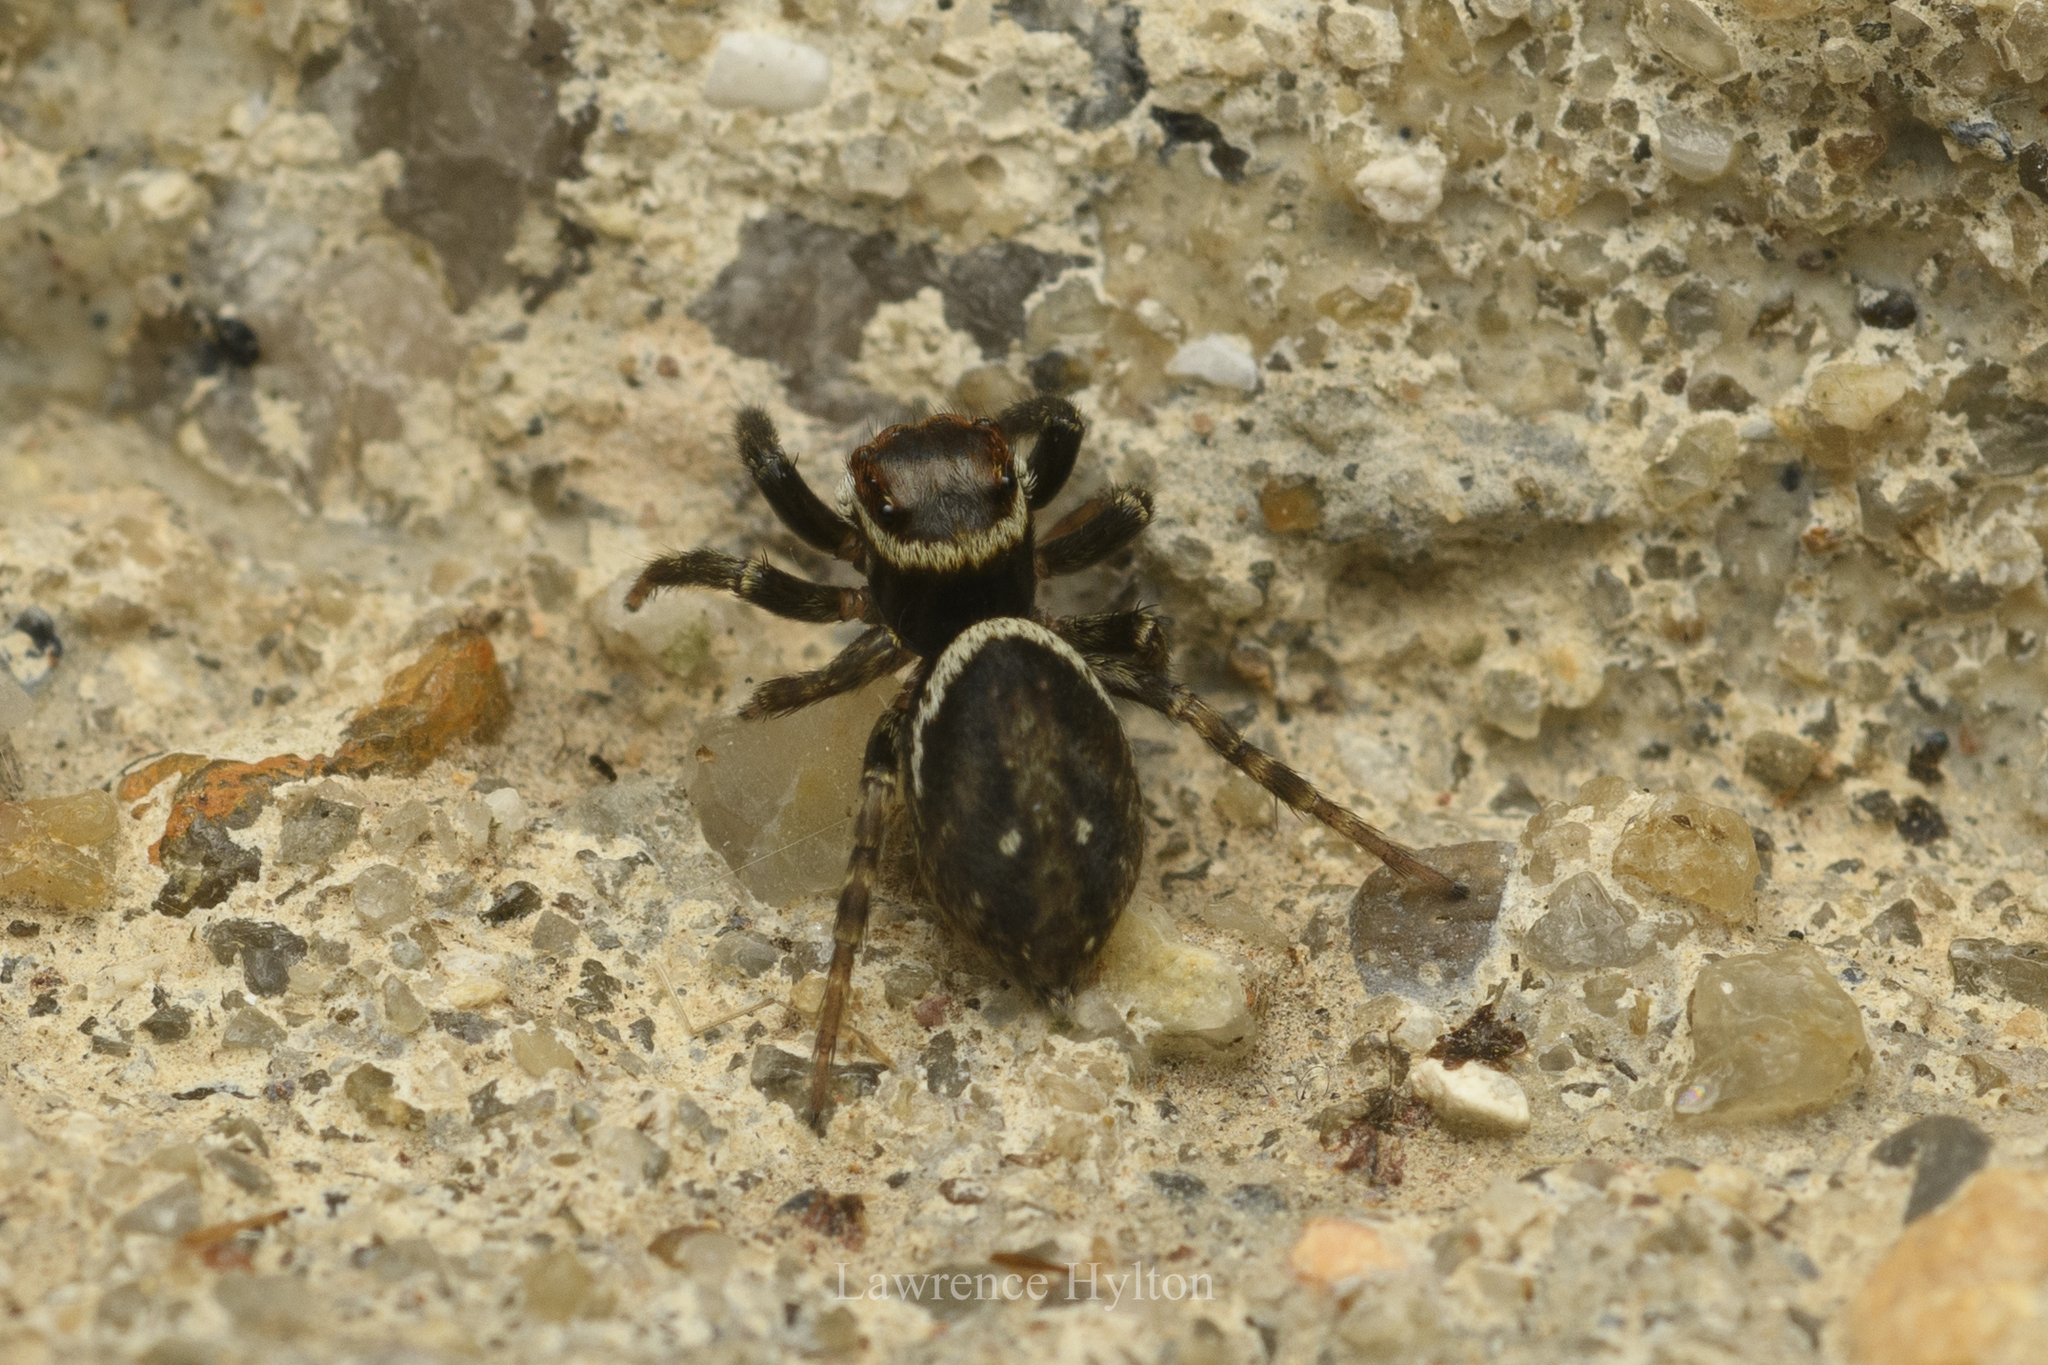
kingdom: Animalia
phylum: Arthropoda
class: Arachnida
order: Araneae
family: Salticidae
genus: Hasarius
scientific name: Hasarius adansoni
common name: Jumping spider
